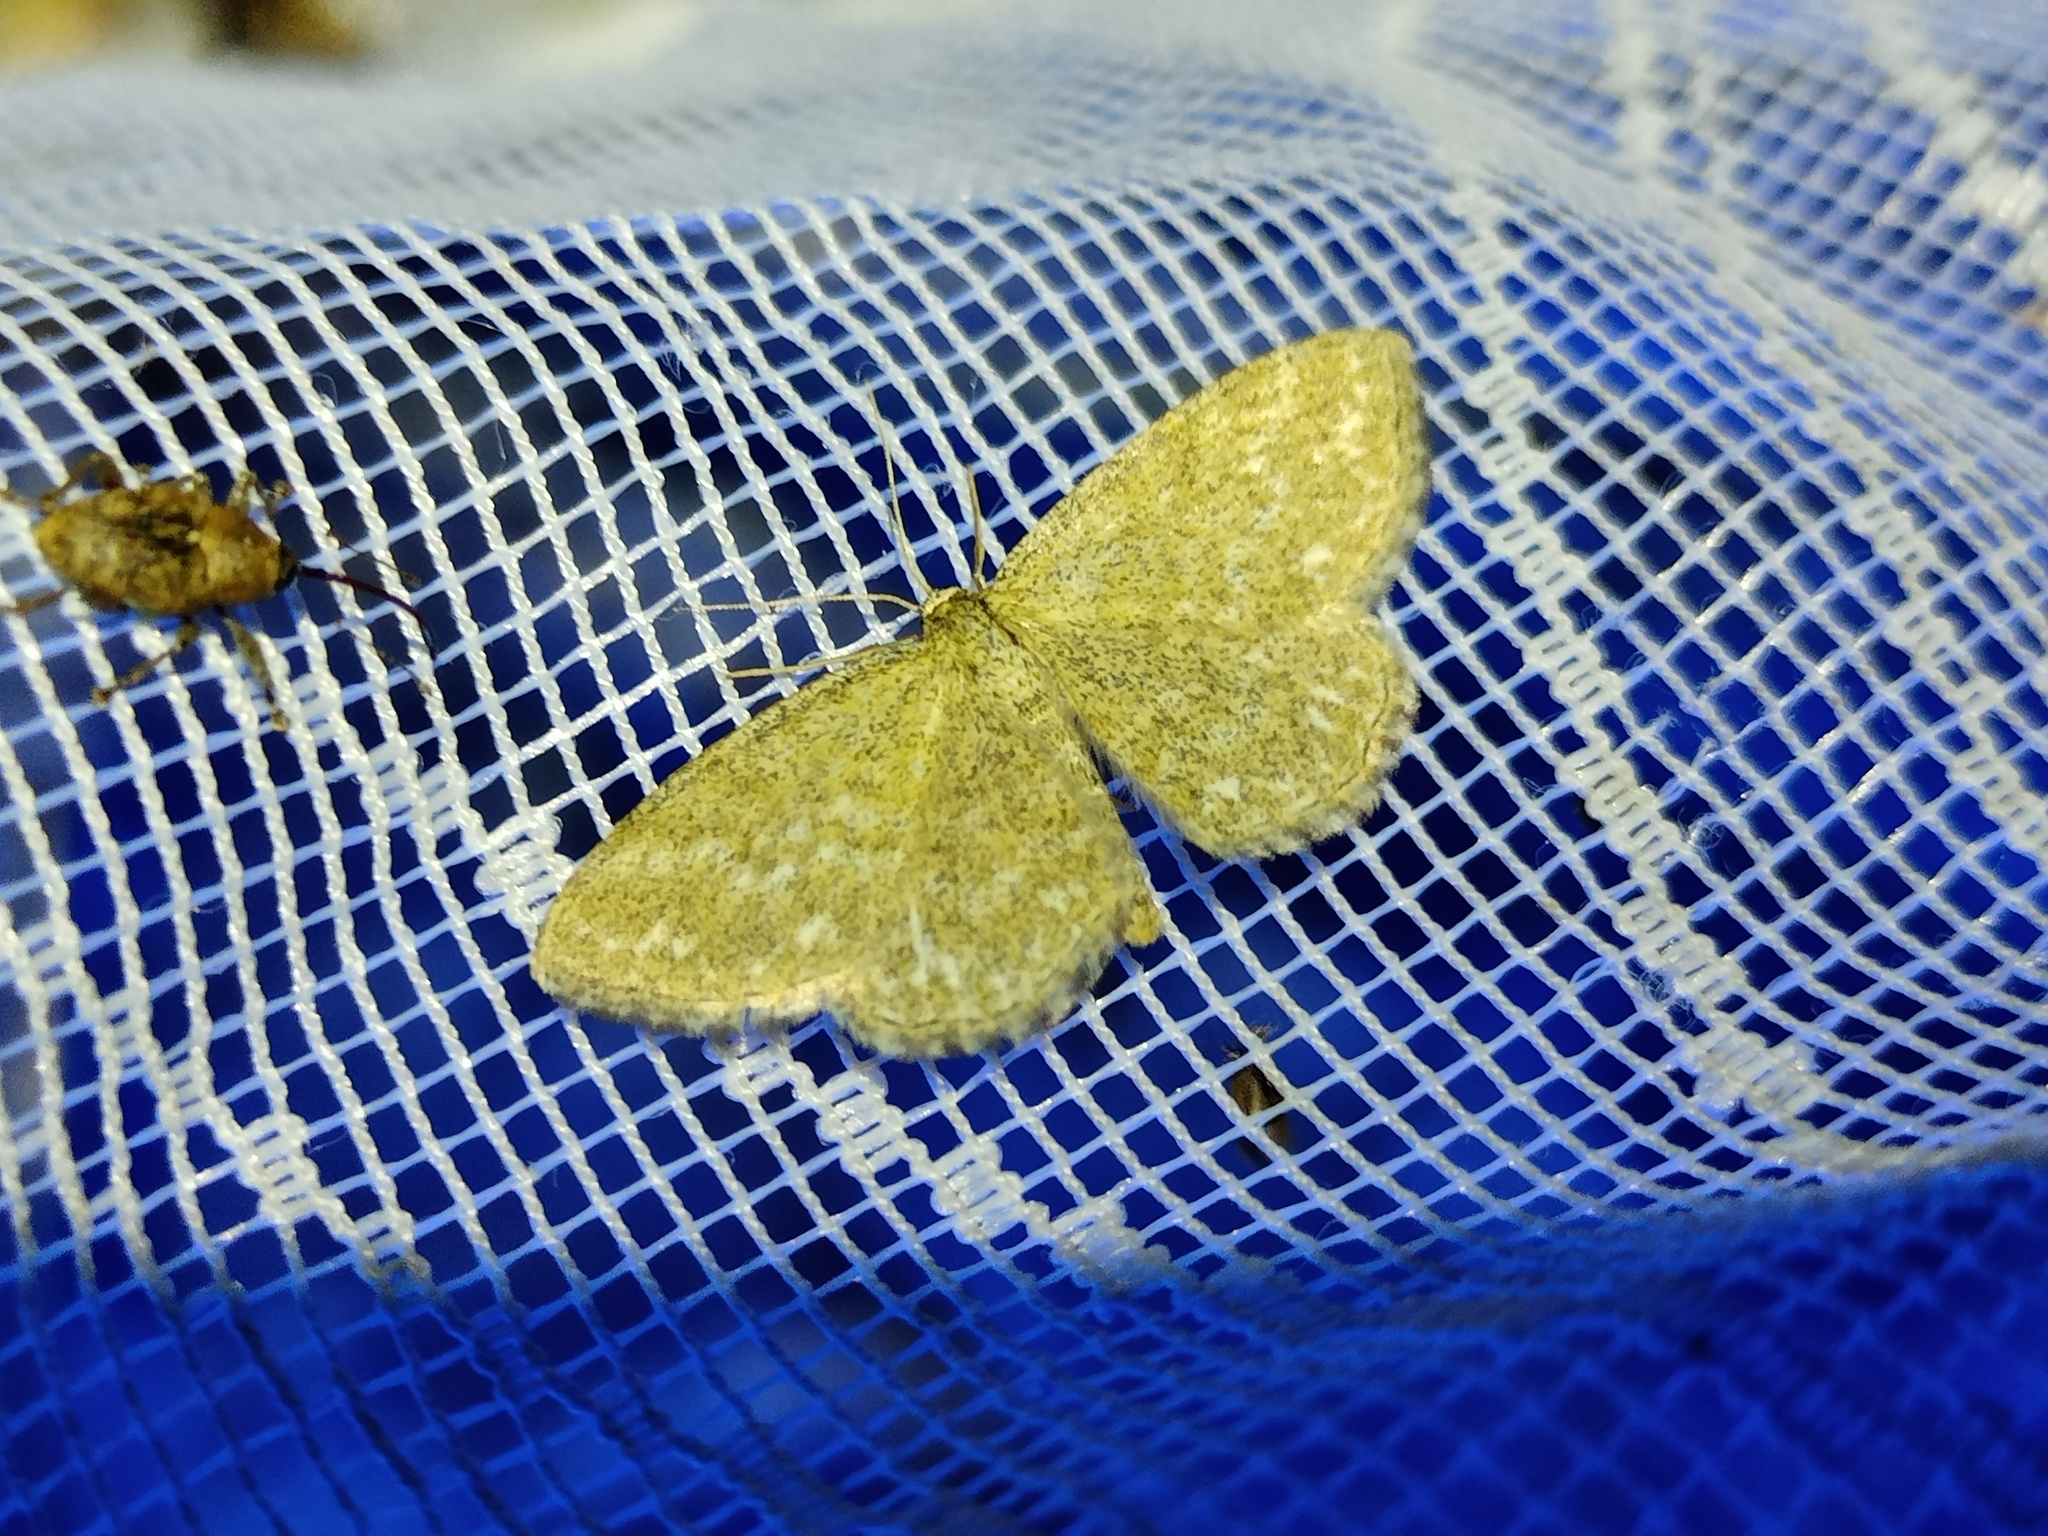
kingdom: Animalia
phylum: Arthropoda
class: Insecta
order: Lepidoptera
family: Geometridae
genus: Scopula
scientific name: Scopula immorata
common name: Lewes wave
